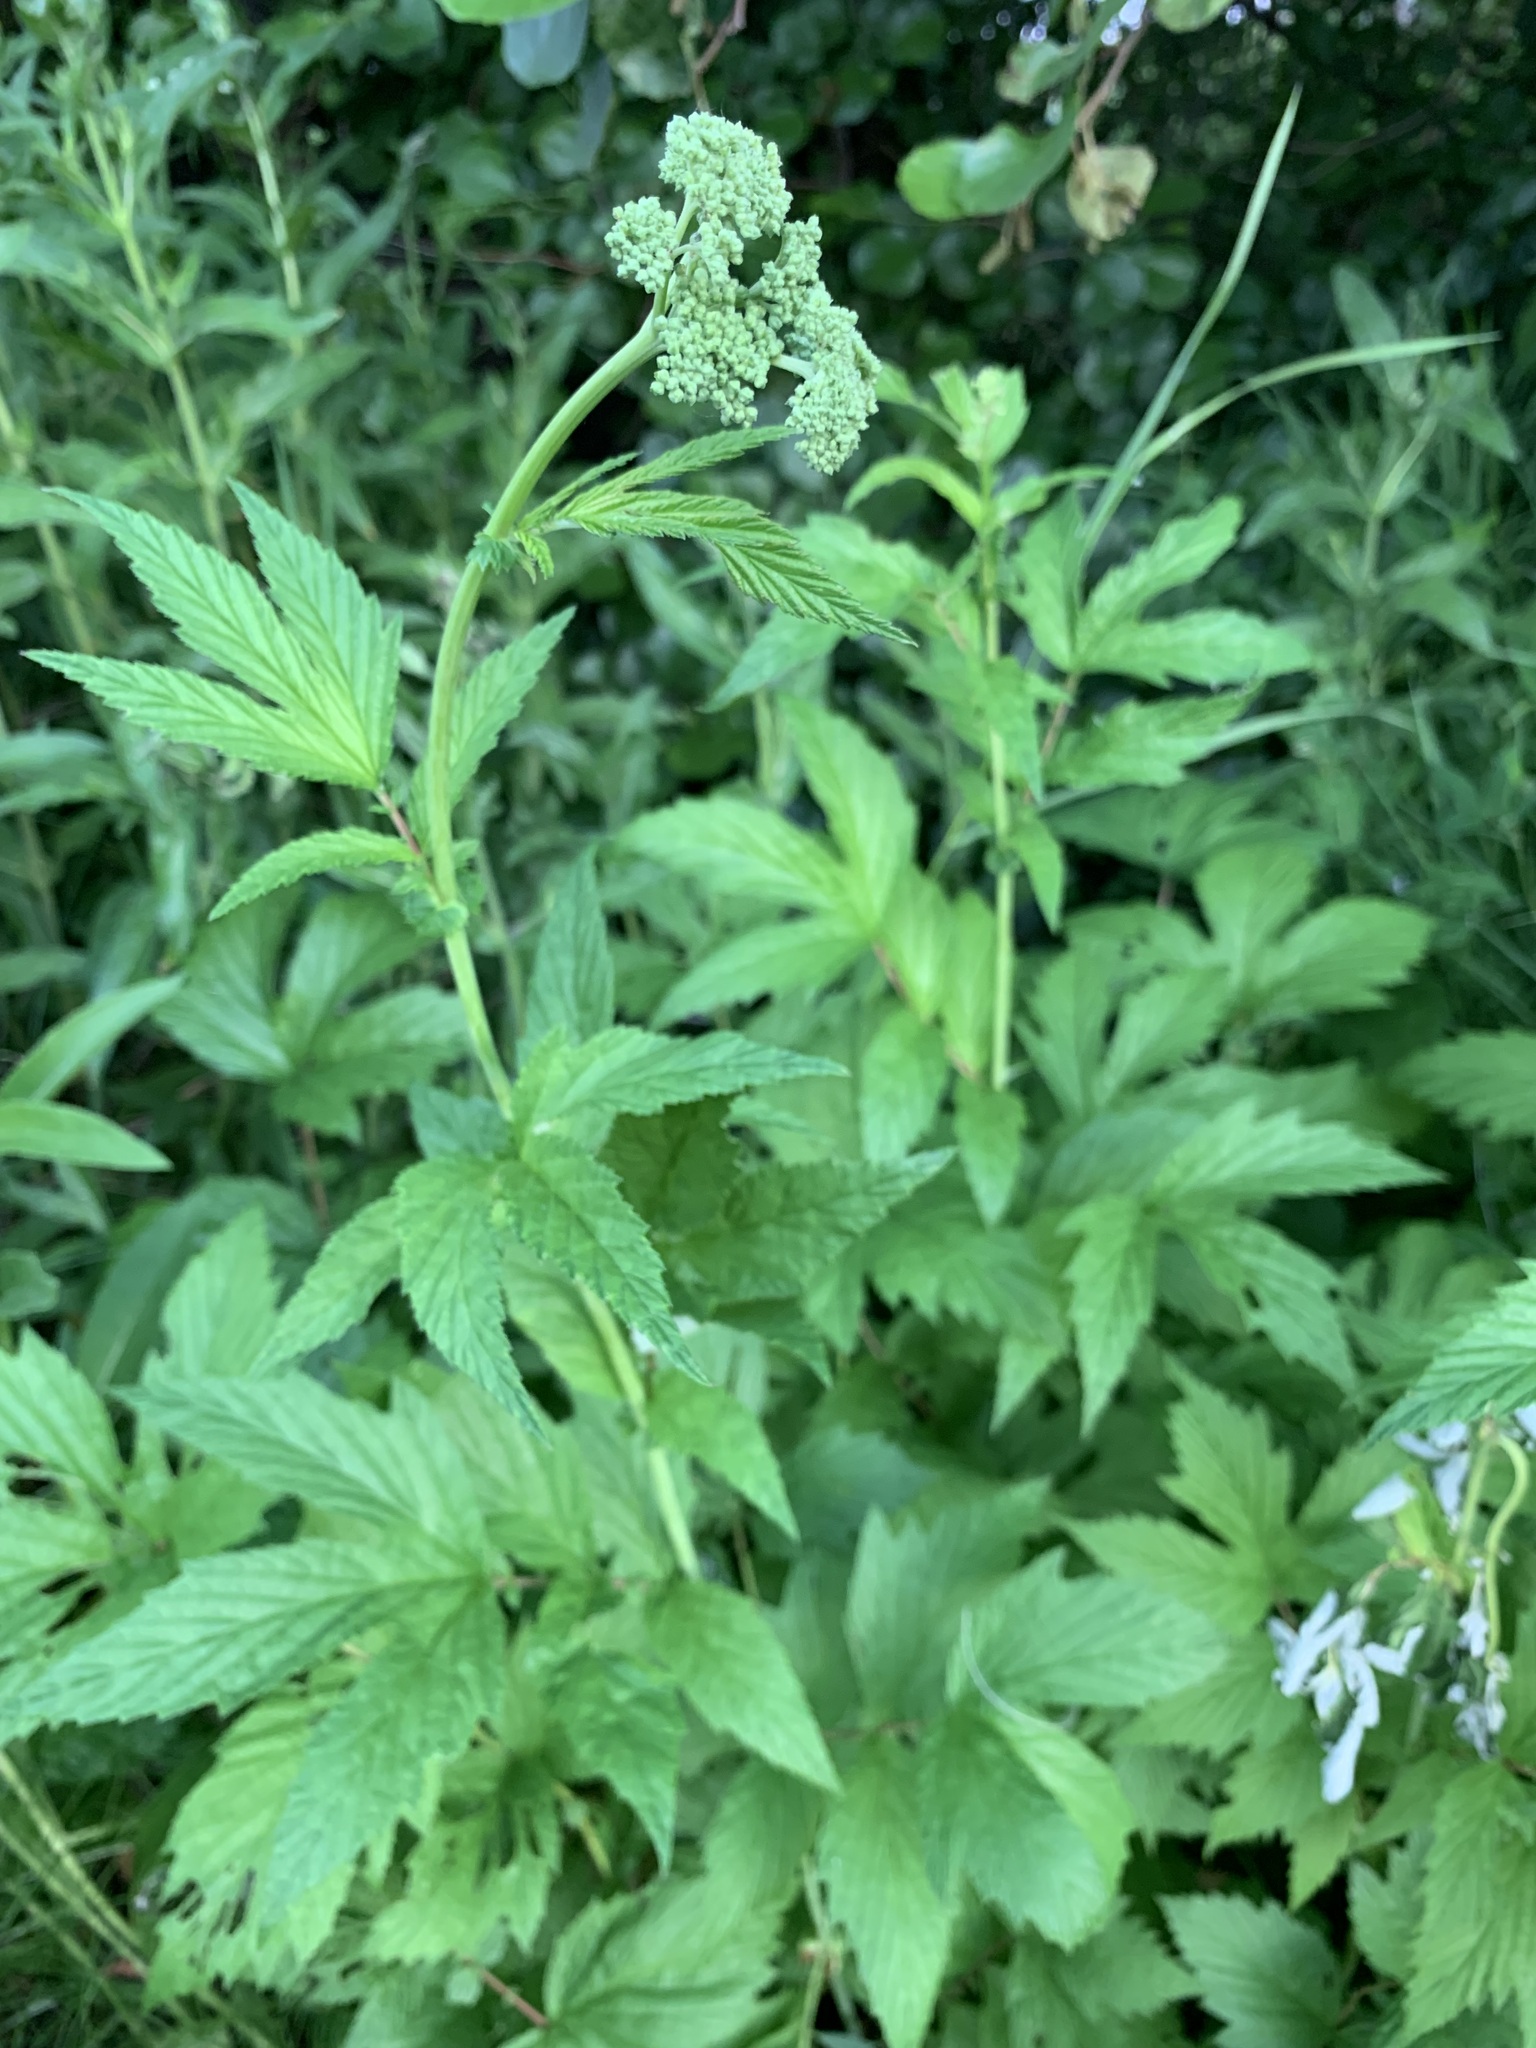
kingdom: Plantae
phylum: Tracheophyta
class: Magnoliopsida
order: Rosales
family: Rosaceae
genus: Filipendula
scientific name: Filipendula ulmaria
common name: Meadowsweet
